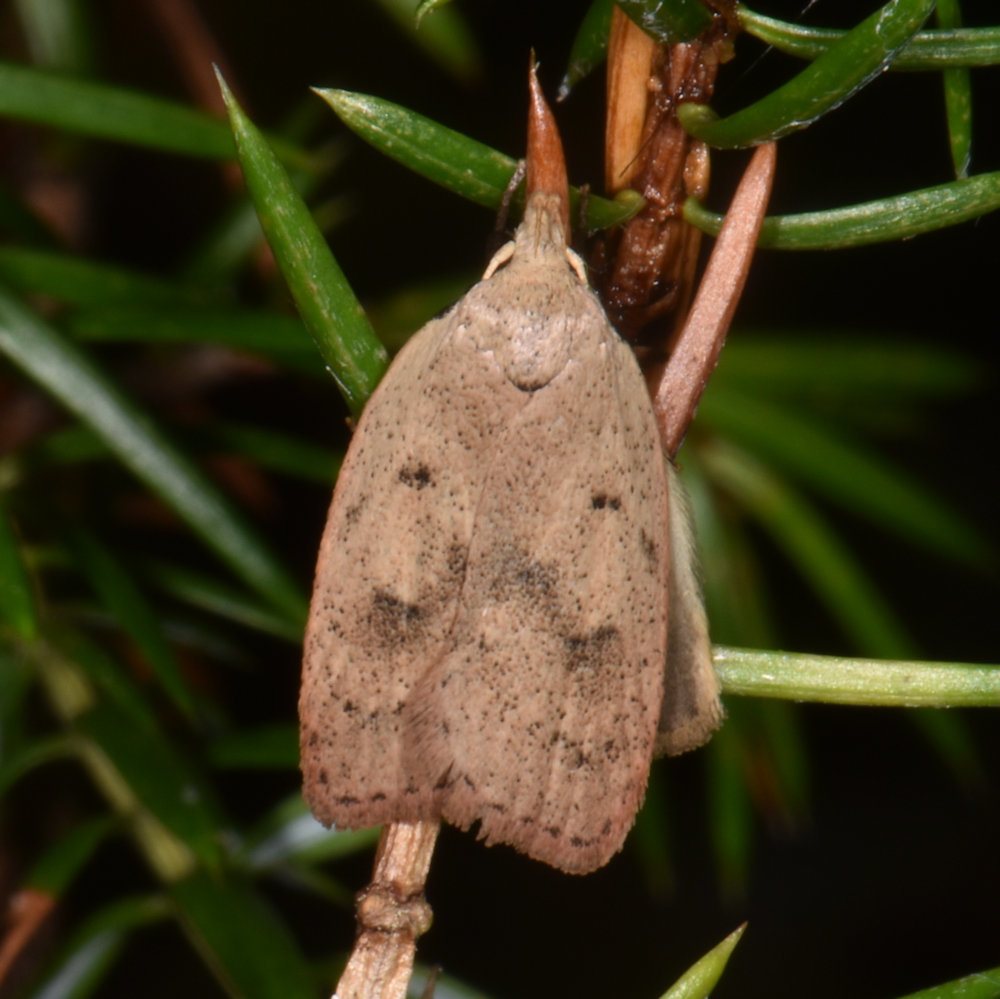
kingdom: Animalia
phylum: Arthropoda
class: Insecta
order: Lepidoptera
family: Peleopodidae
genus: Machimia
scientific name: Machimia tentoriferella
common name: Gold-striped leaftier moth
